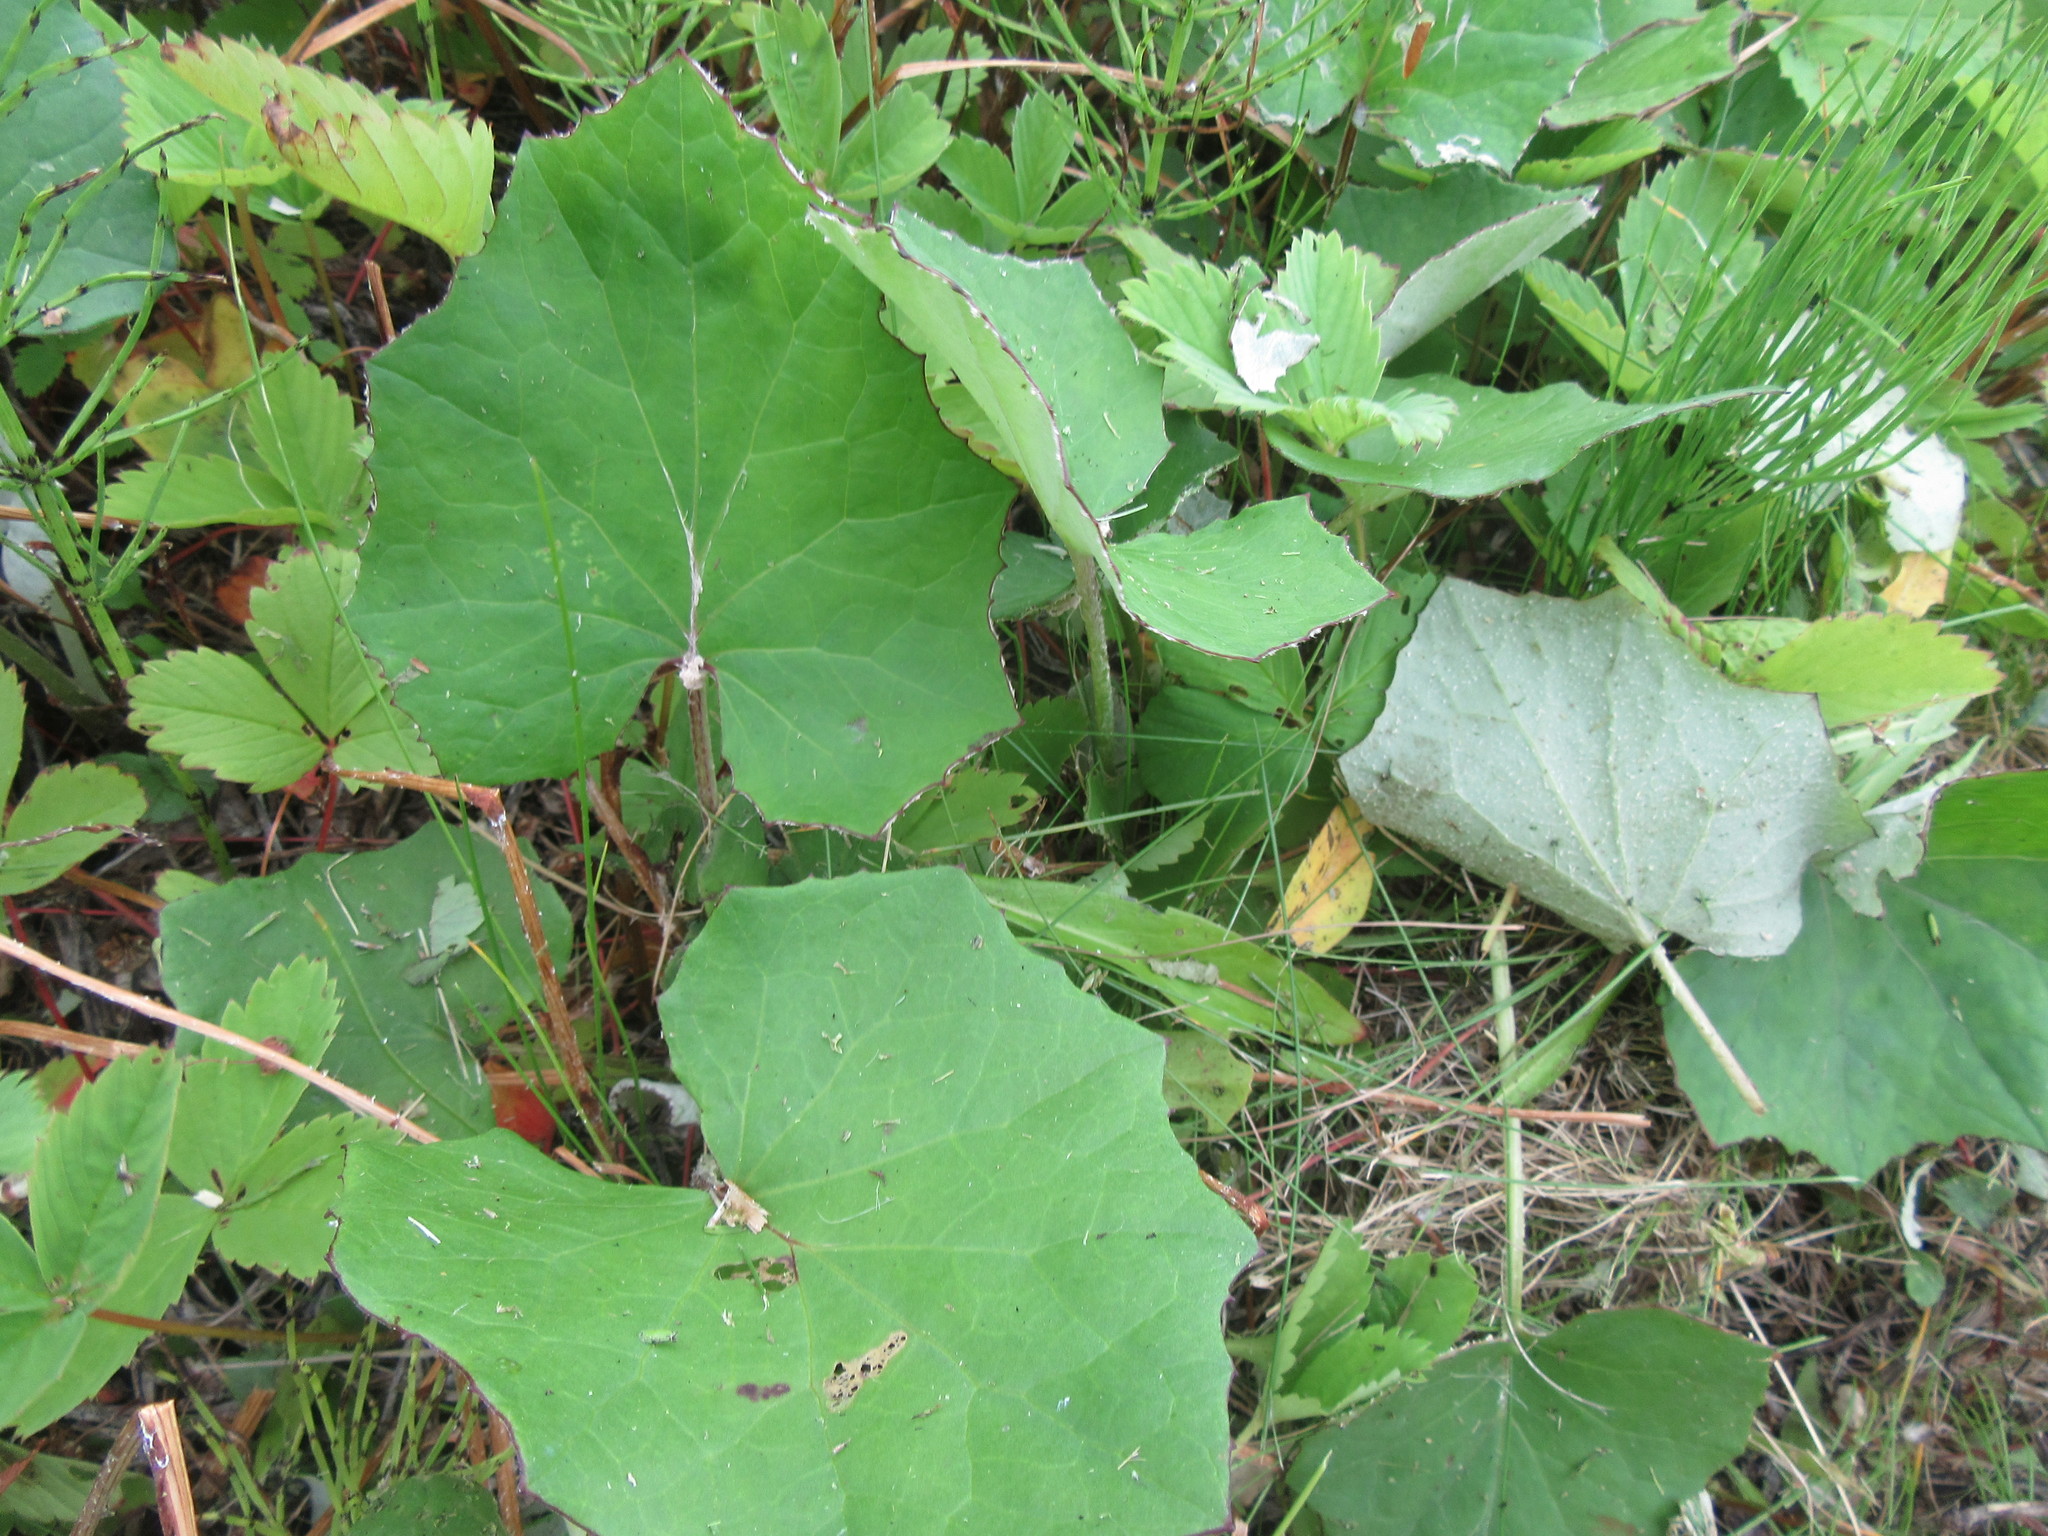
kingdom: Plantae
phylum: Tracheophyta
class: Magnoliopsida
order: Asterales
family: Asteraceae
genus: Tussilago
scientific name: Tussilago farfara
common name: Coltsfoot
